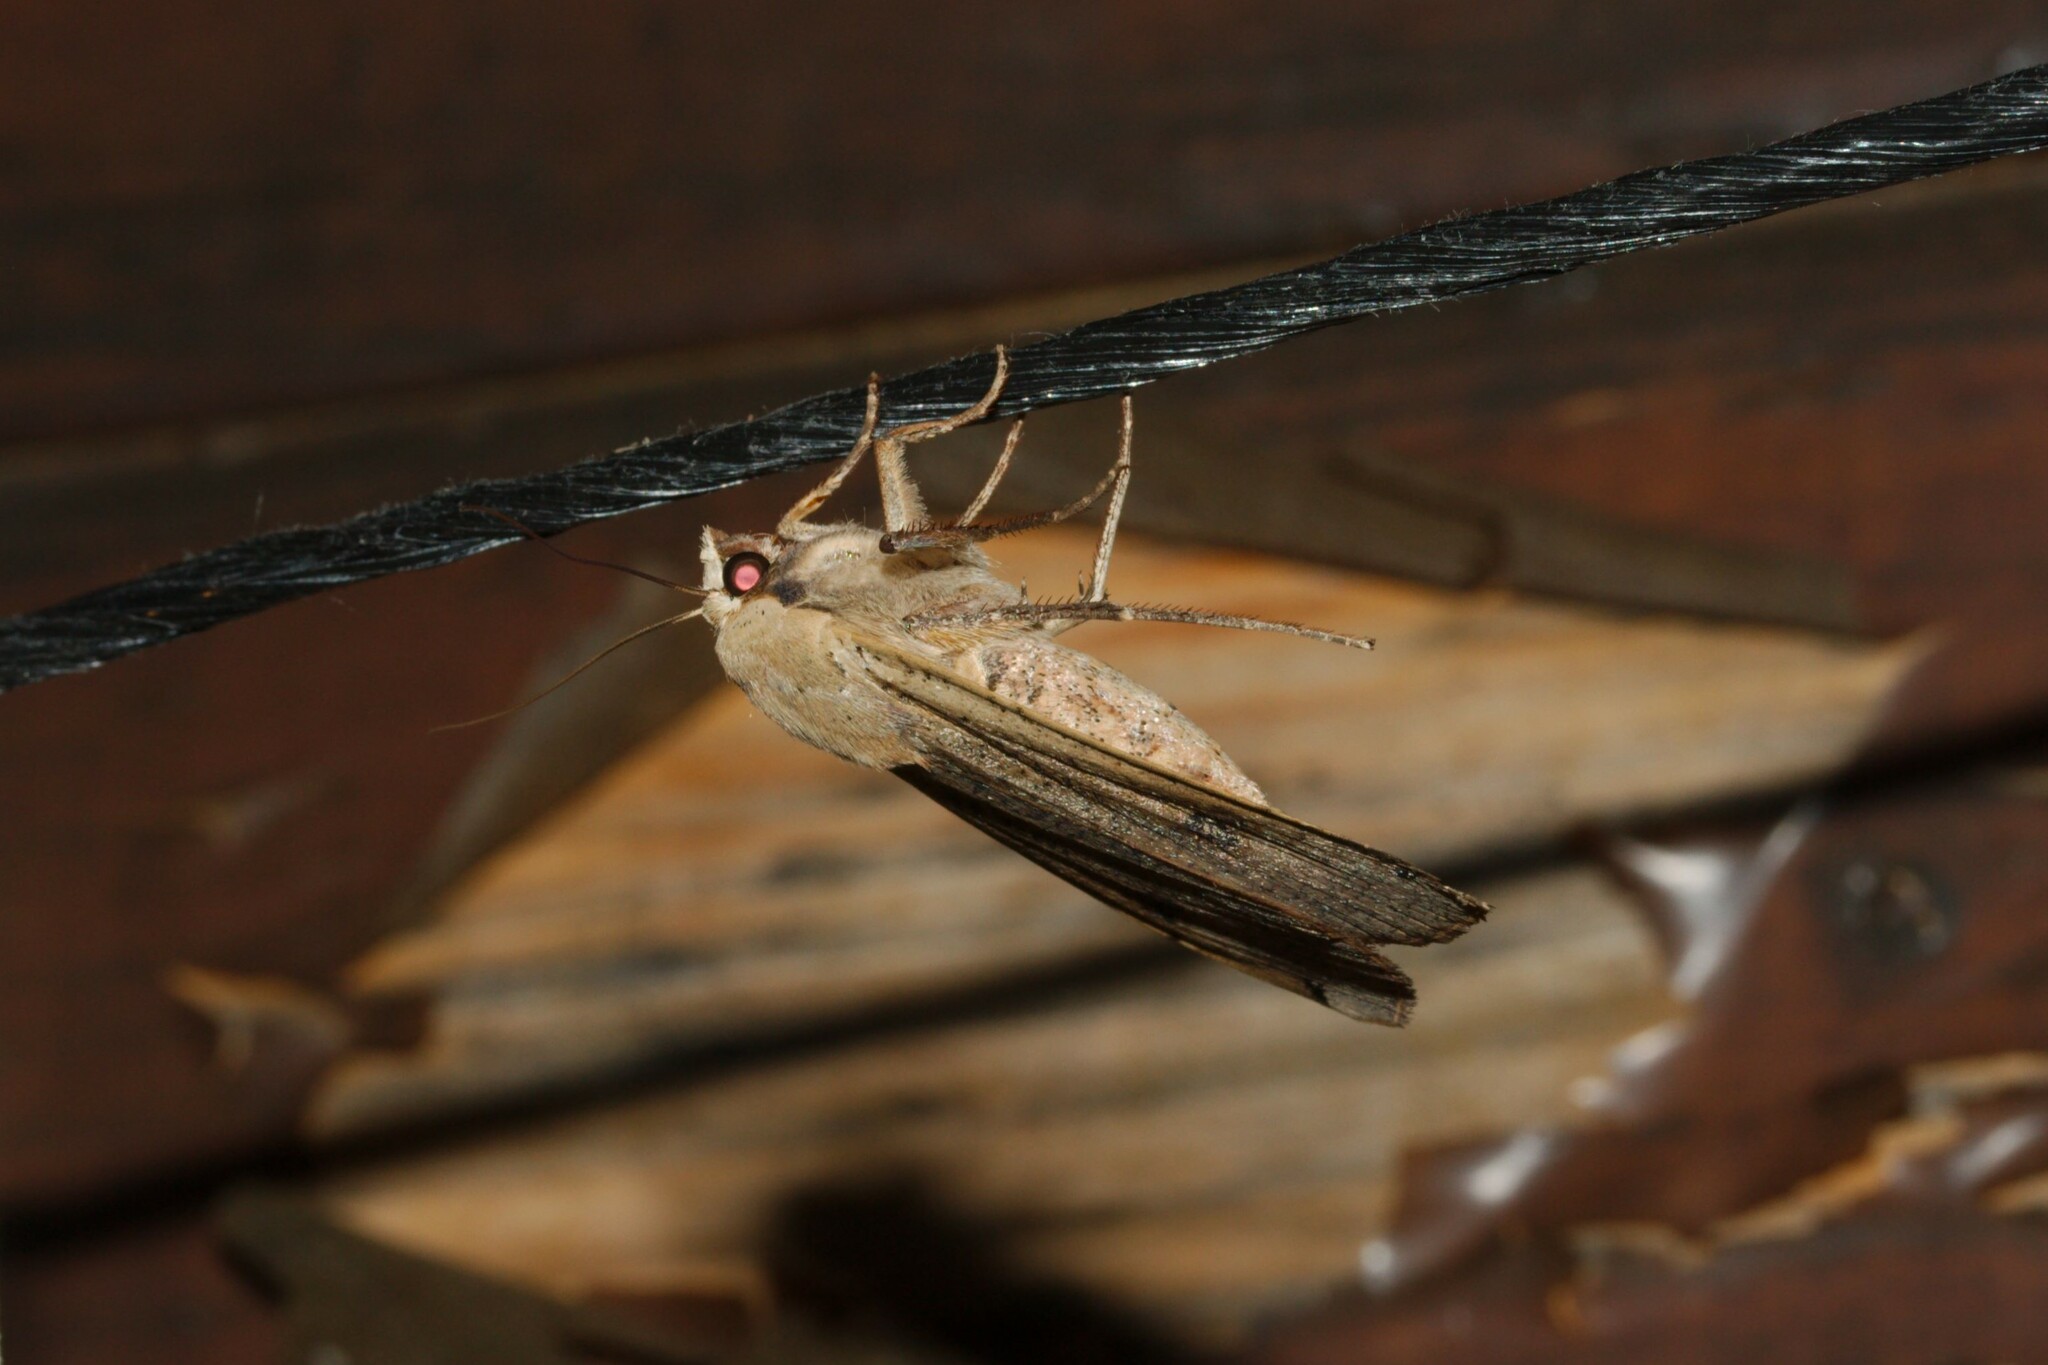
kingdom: Animalia
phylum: Arthropoda
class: Insecta
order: Lepidoptera
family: Noctuidae
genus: Noctua
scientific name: Noctua pronuba
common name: Large yellow underwing
